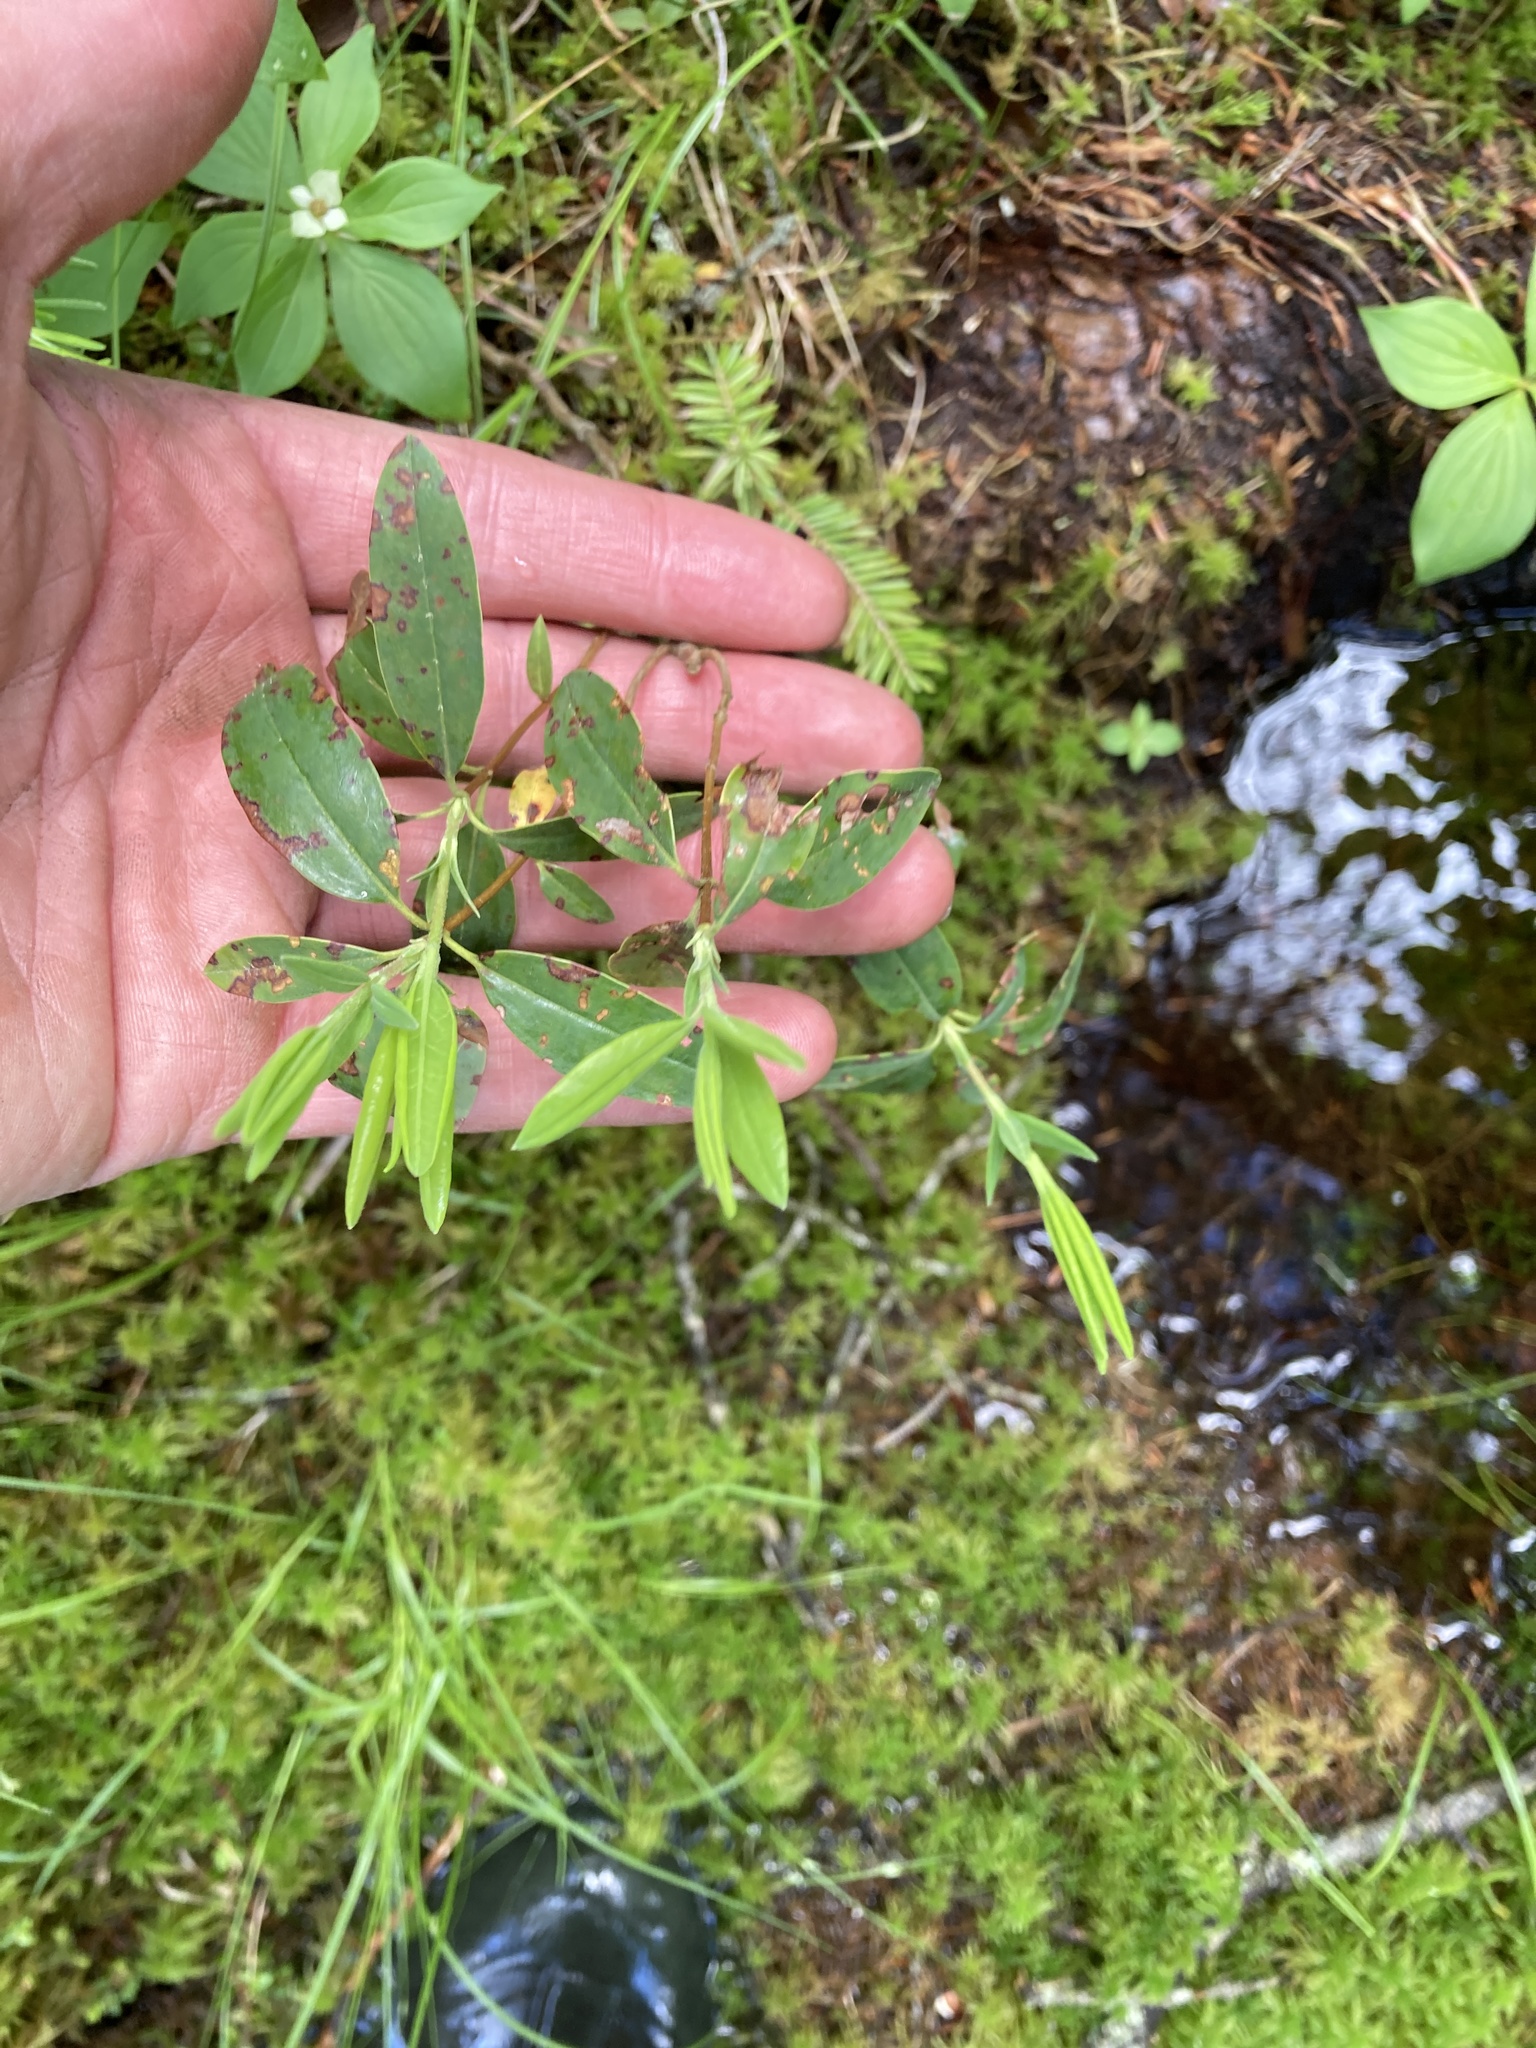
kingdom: Plantae
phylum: Tracheophyta
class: Magnoliopsida
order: Ericales
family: Ericaceae
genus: Kalmia
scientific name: Kalmia angustifolia
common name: Sheep-laurel
